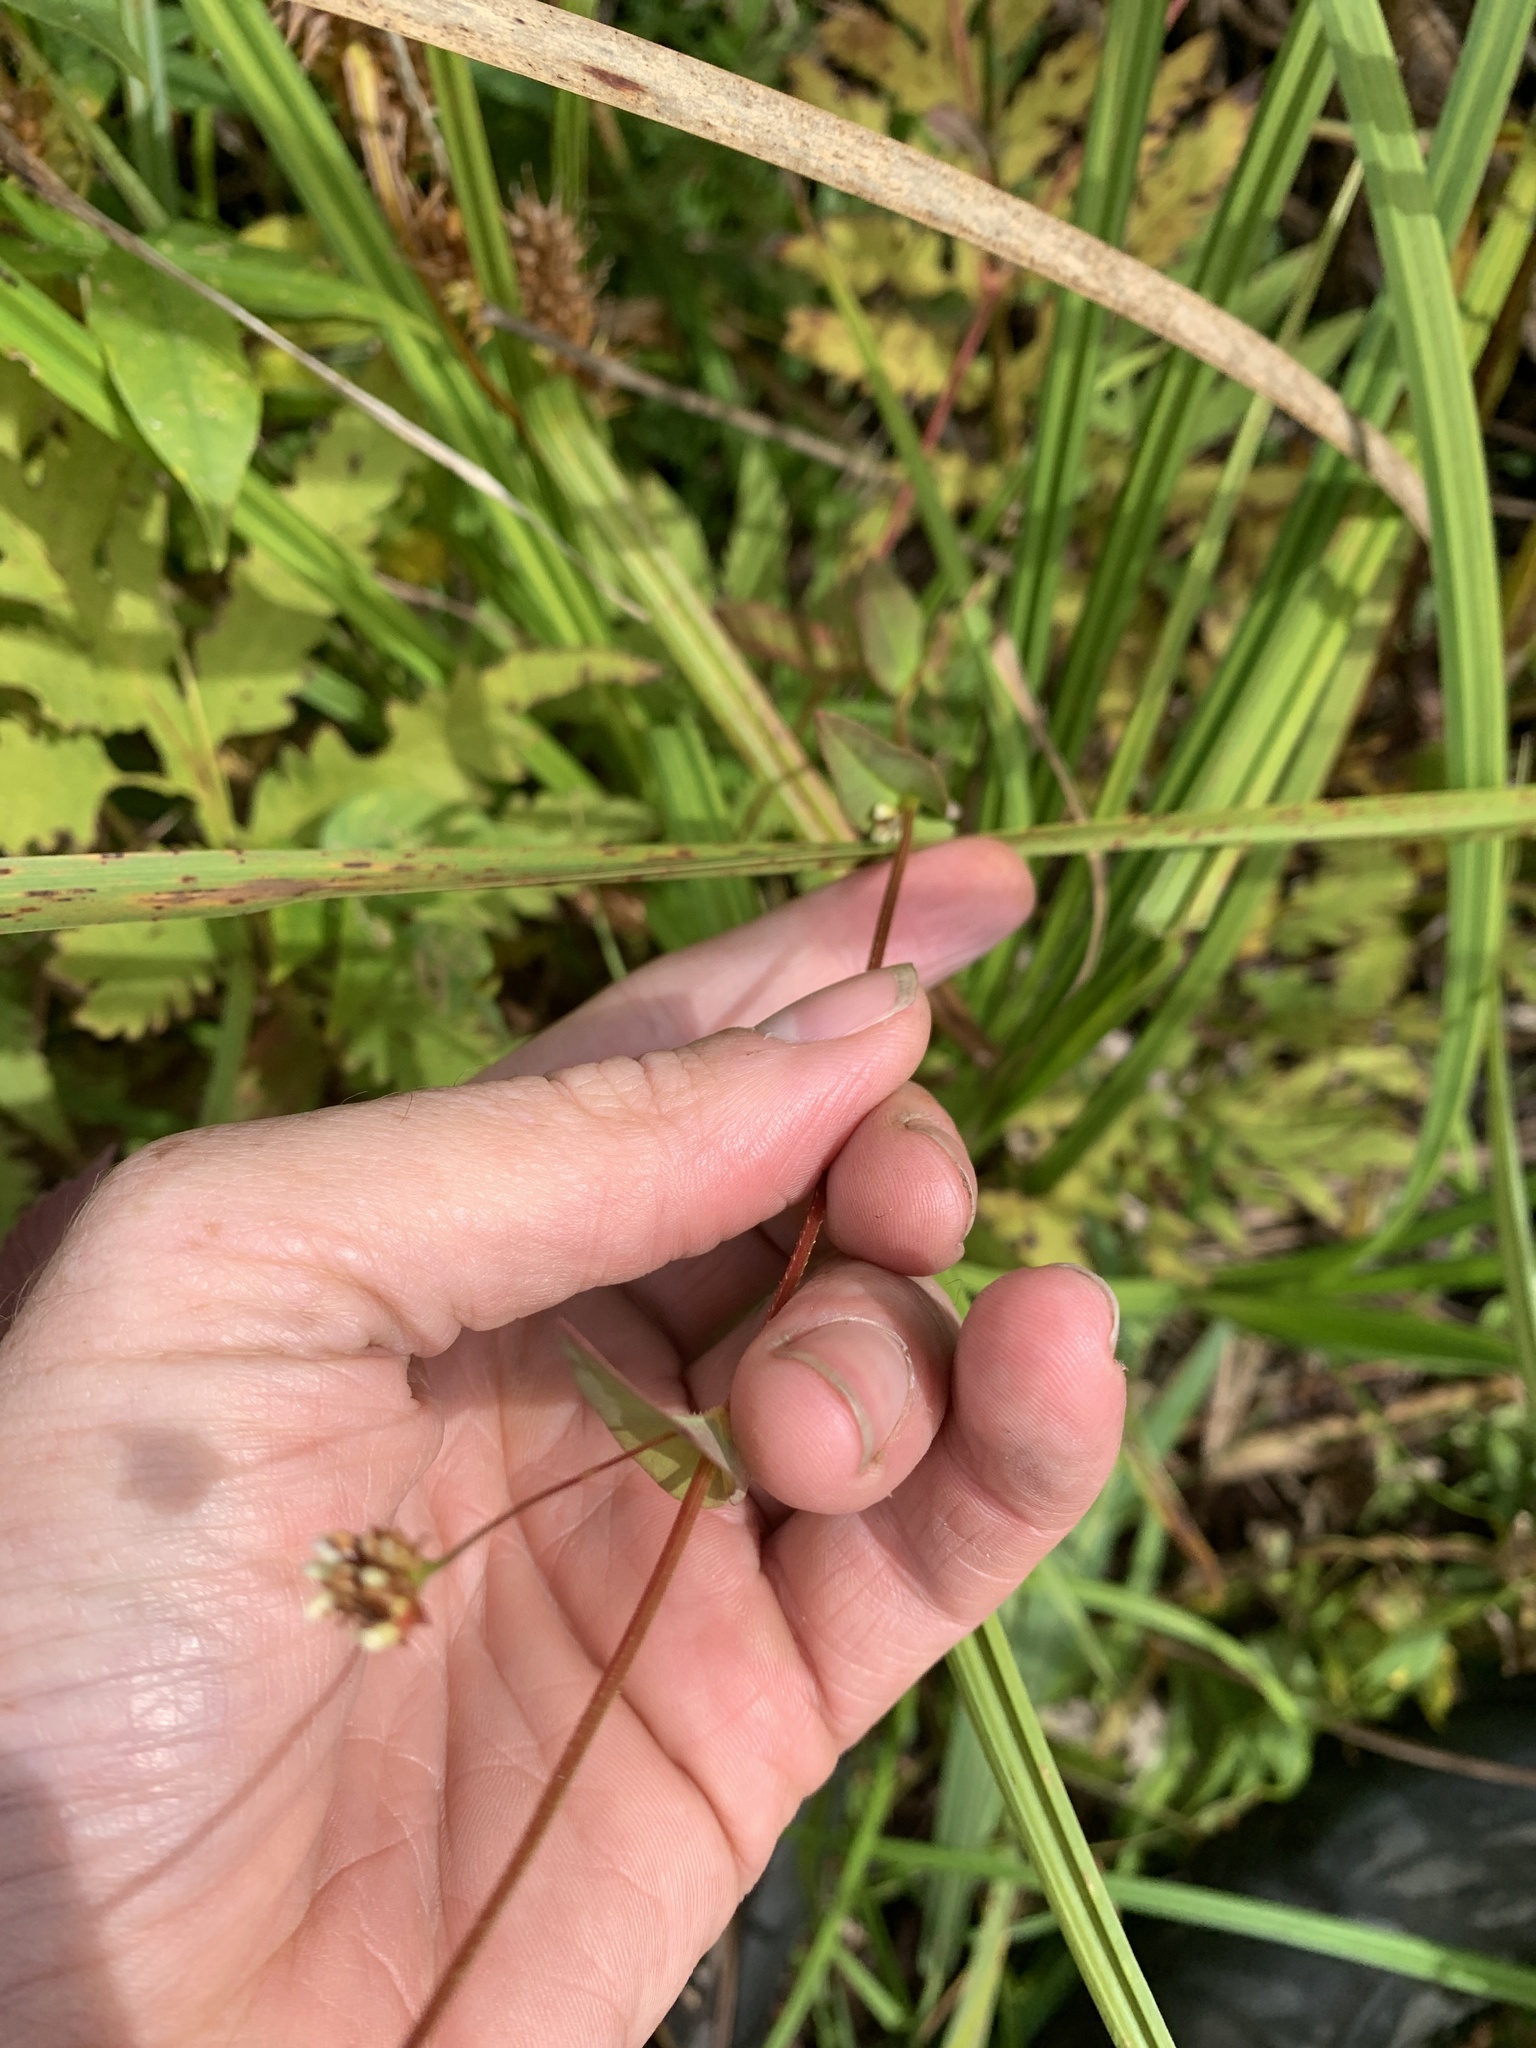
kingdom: Plantae
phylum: Tracheophyta
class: Magnoliopsida
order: Caryophyllales
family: Polygonaceae
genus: Persicaria
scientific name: Persicaria sagittata
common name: American tearthumb
